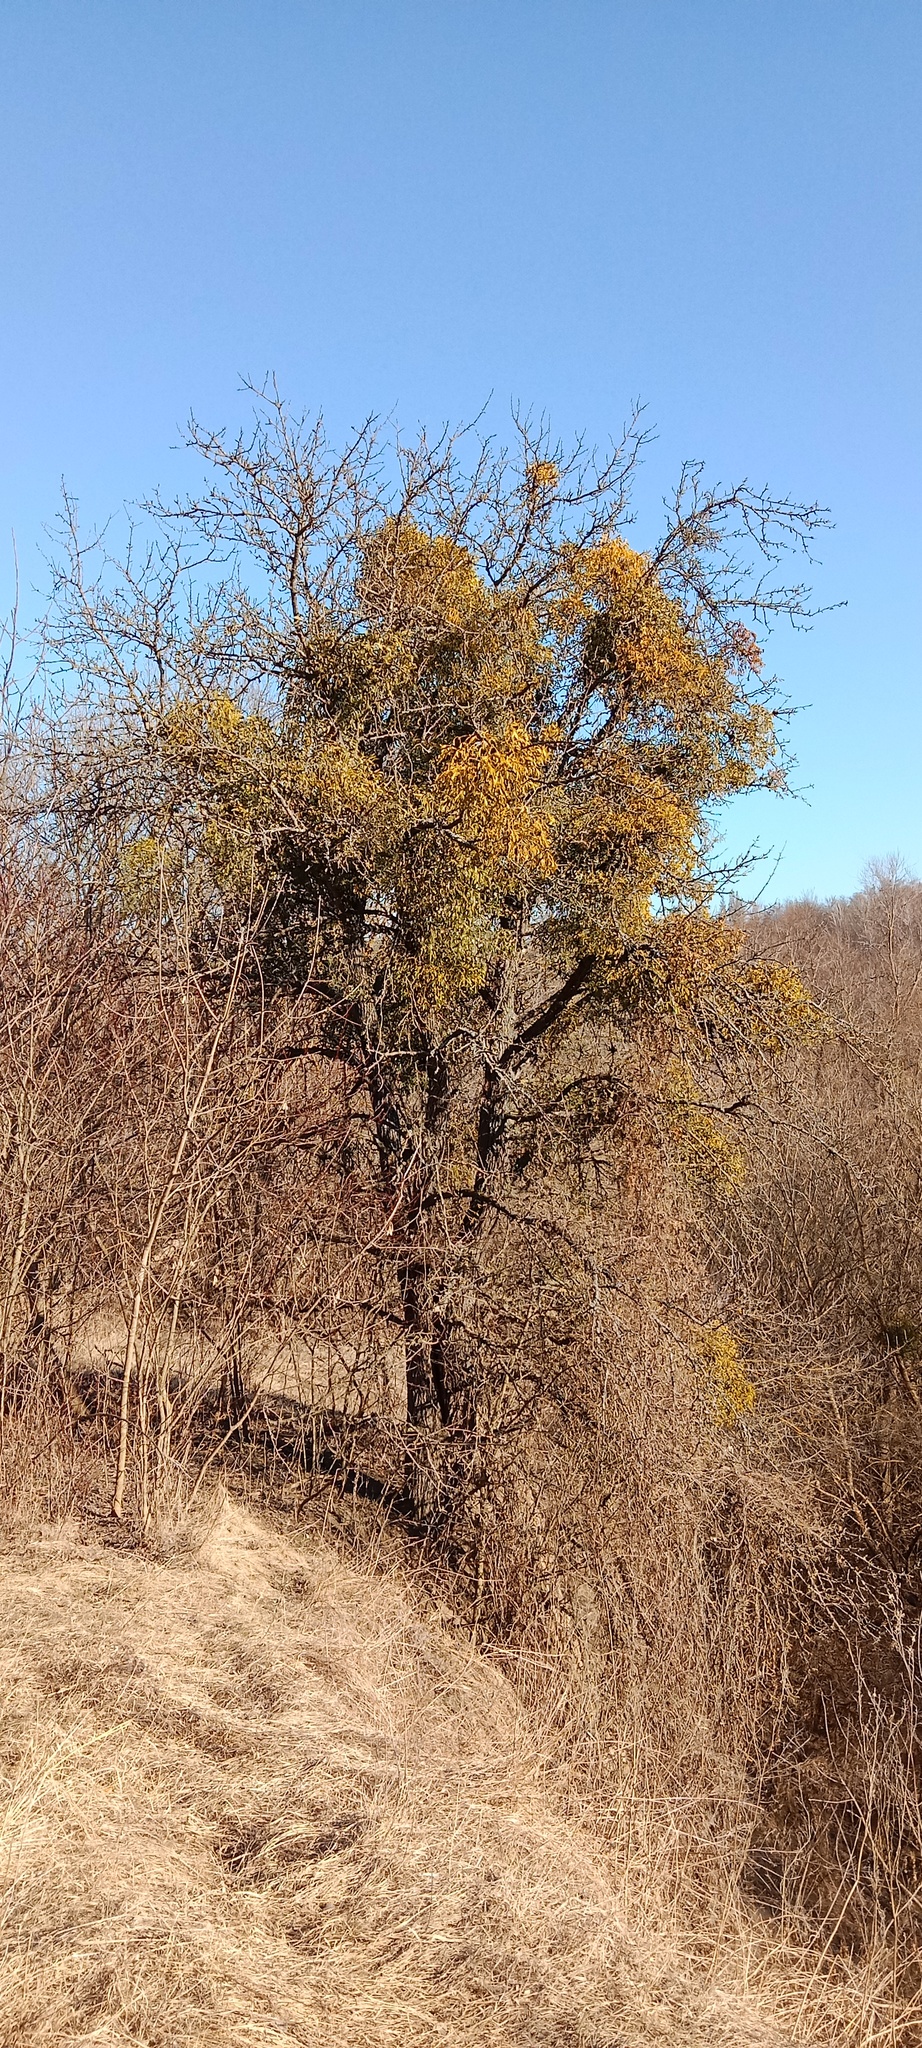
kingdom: Plantae
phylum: Tracheophyta
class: Magnoliopsida
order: Santalales
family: Viscaceae
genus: Viscum
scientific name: Viscum album
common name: Mistletoe
